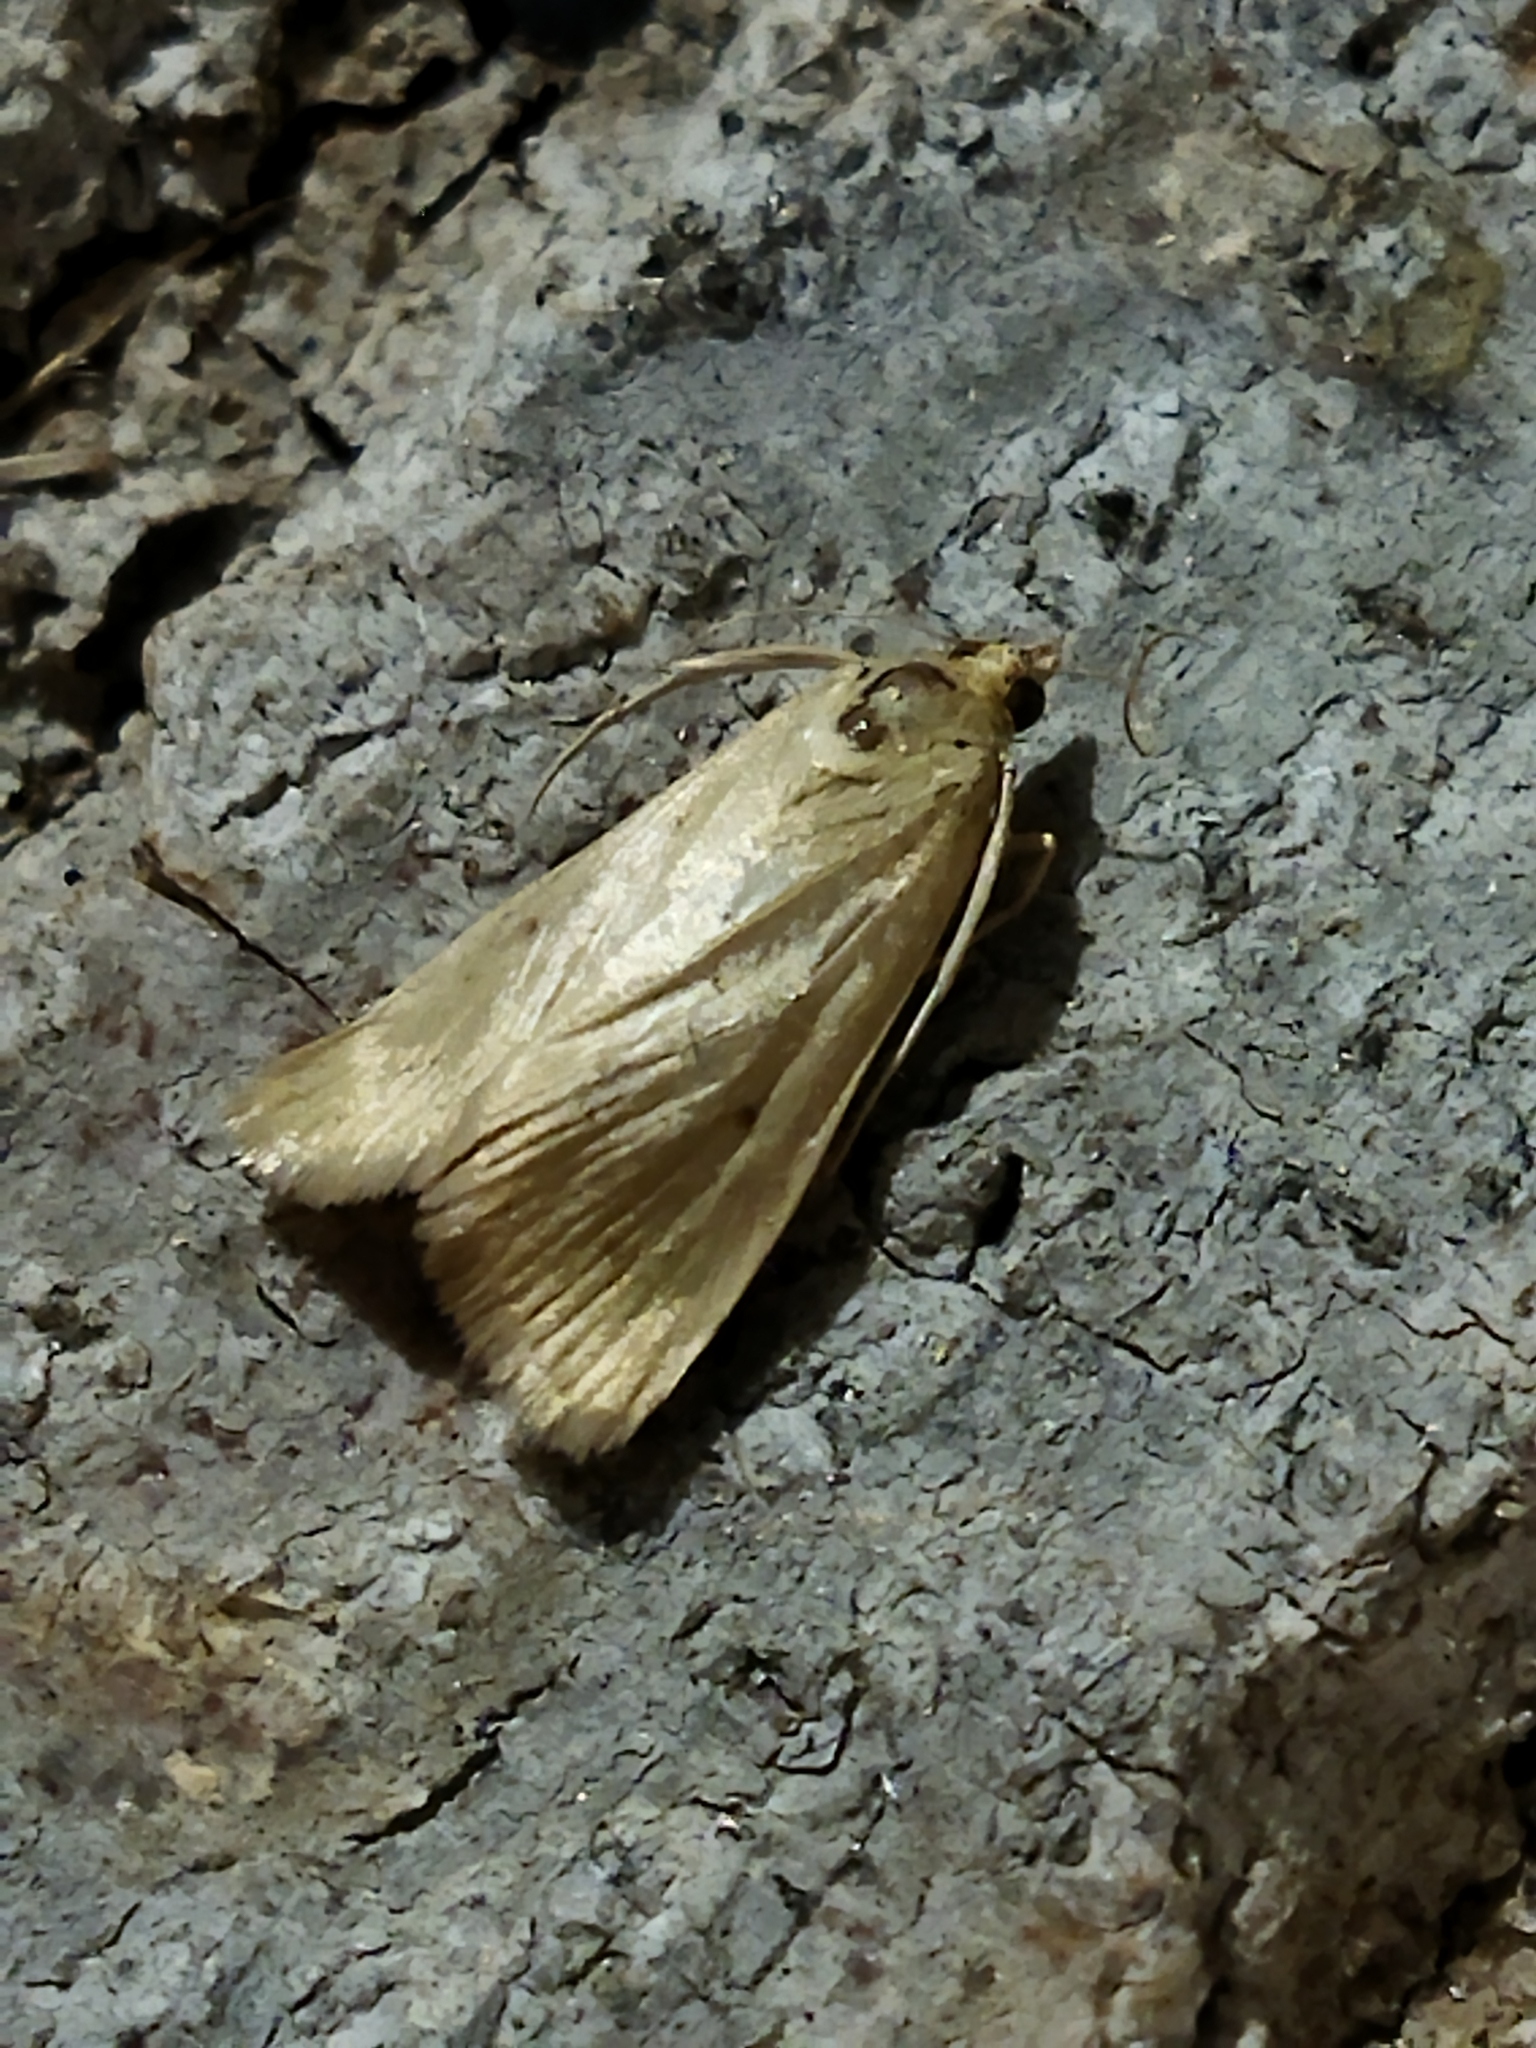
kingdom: Animalia
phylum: Arthropoda
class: Insecta
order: Lepidoptera
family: Crambidae
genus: Achyra
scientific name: Achyra nudalis
